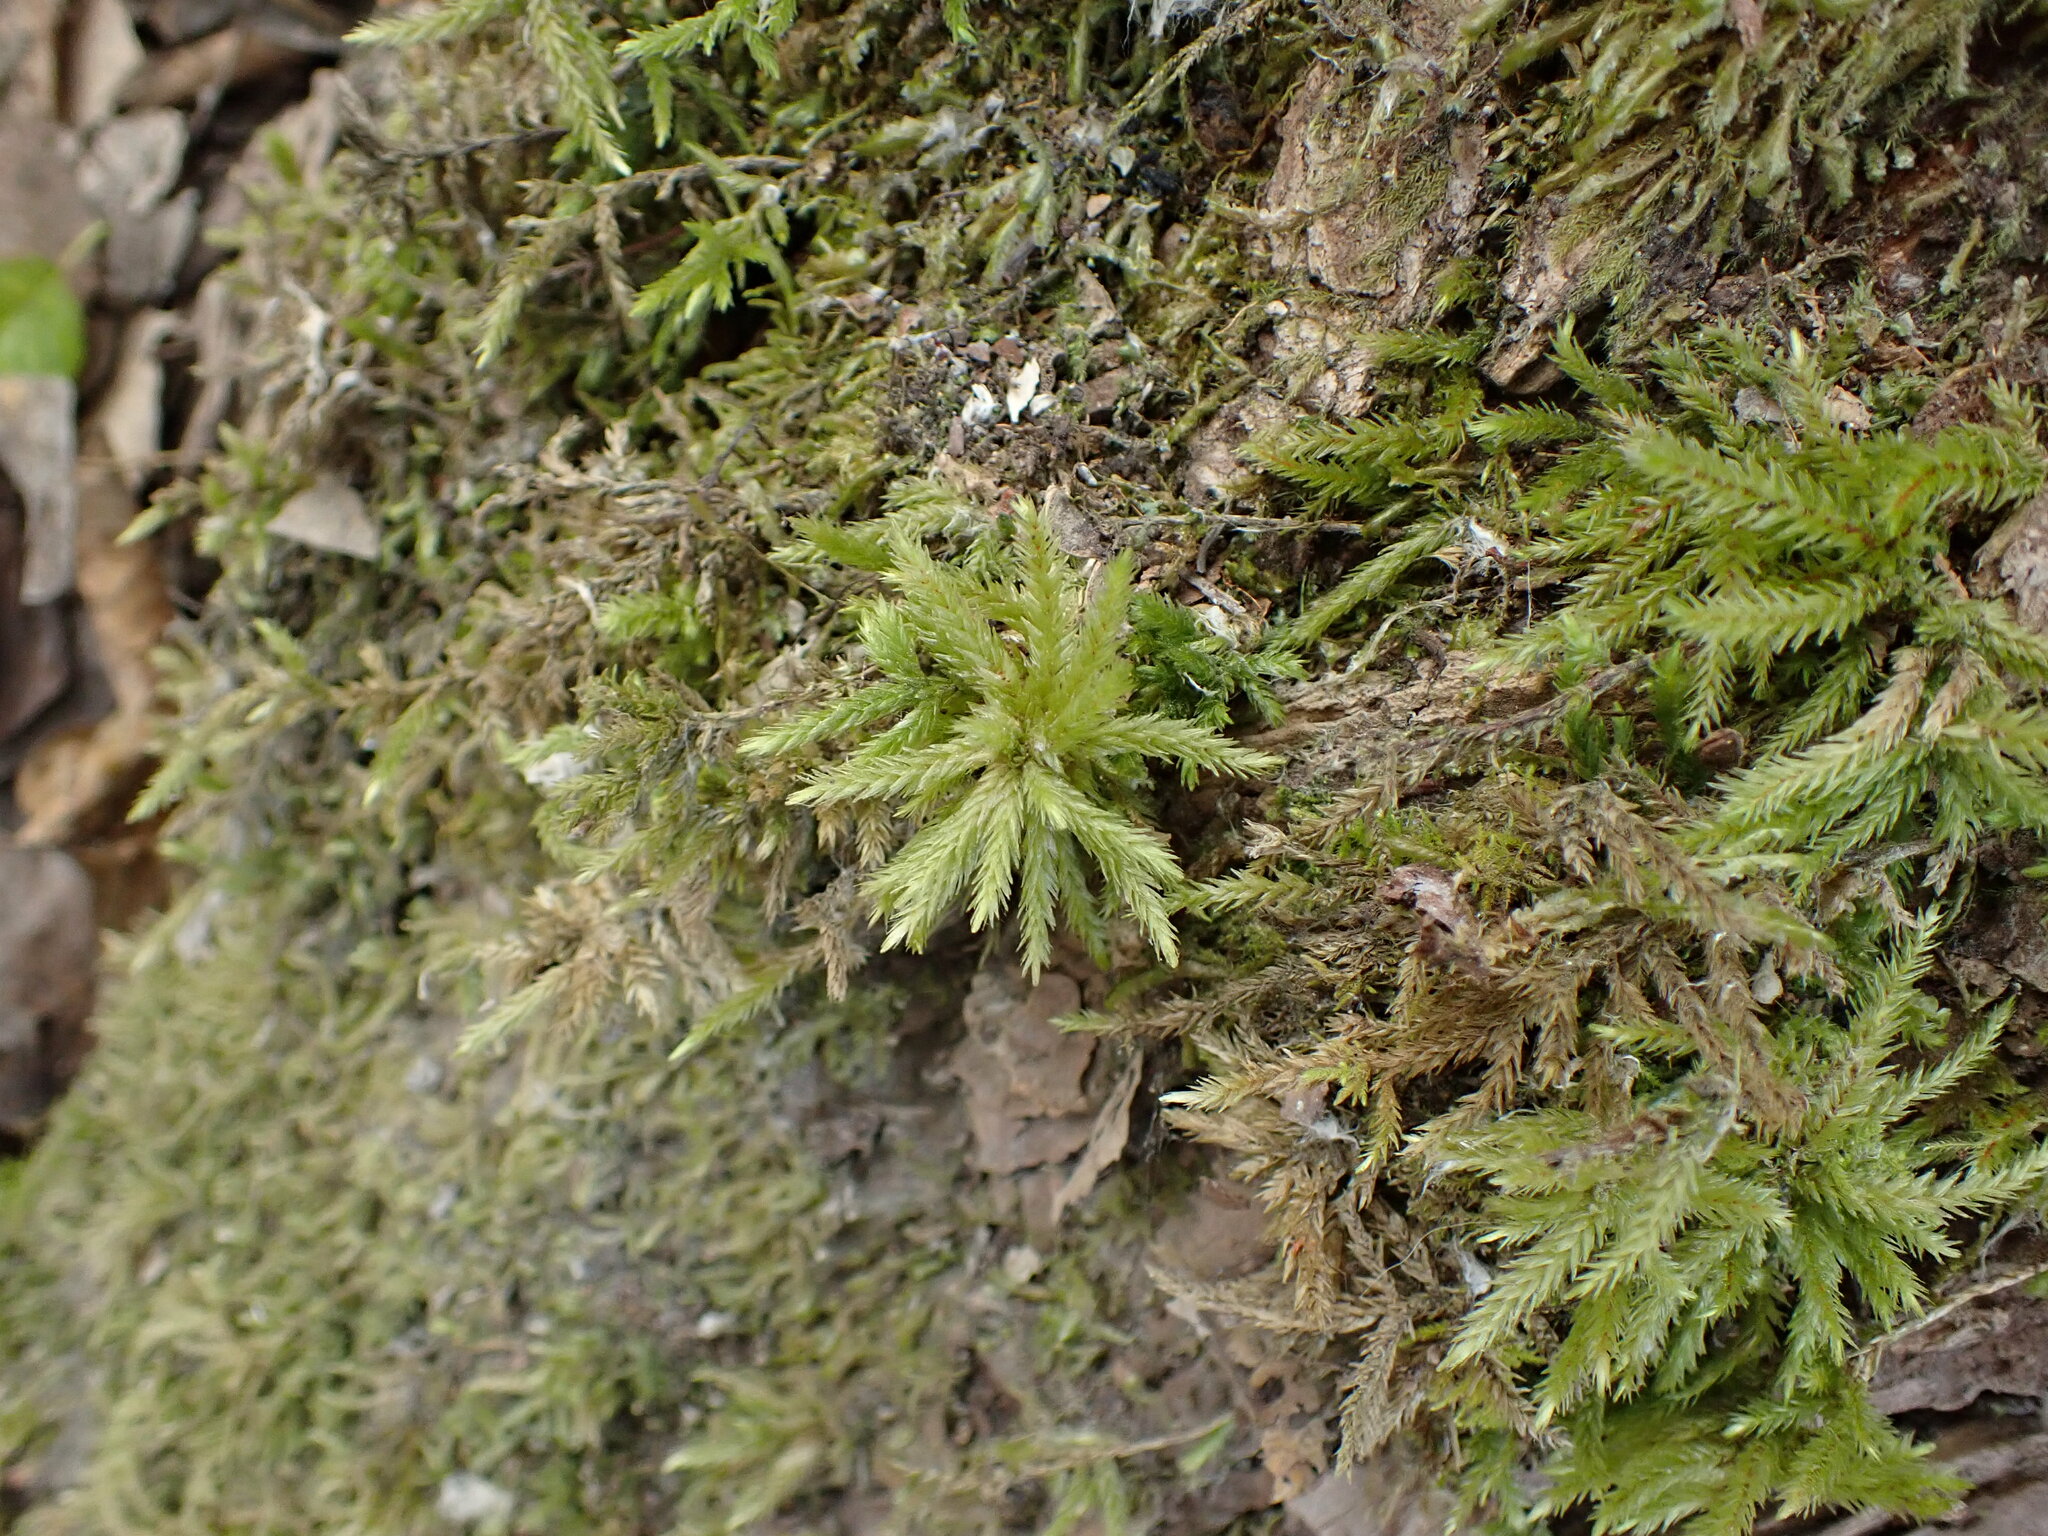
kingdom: Plantae
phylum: Bryophyta
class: Bryopsida
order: Hypnales
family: Climaciaceae
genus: Climacium
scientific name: Climacium dendroides
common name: Northern tree moss
